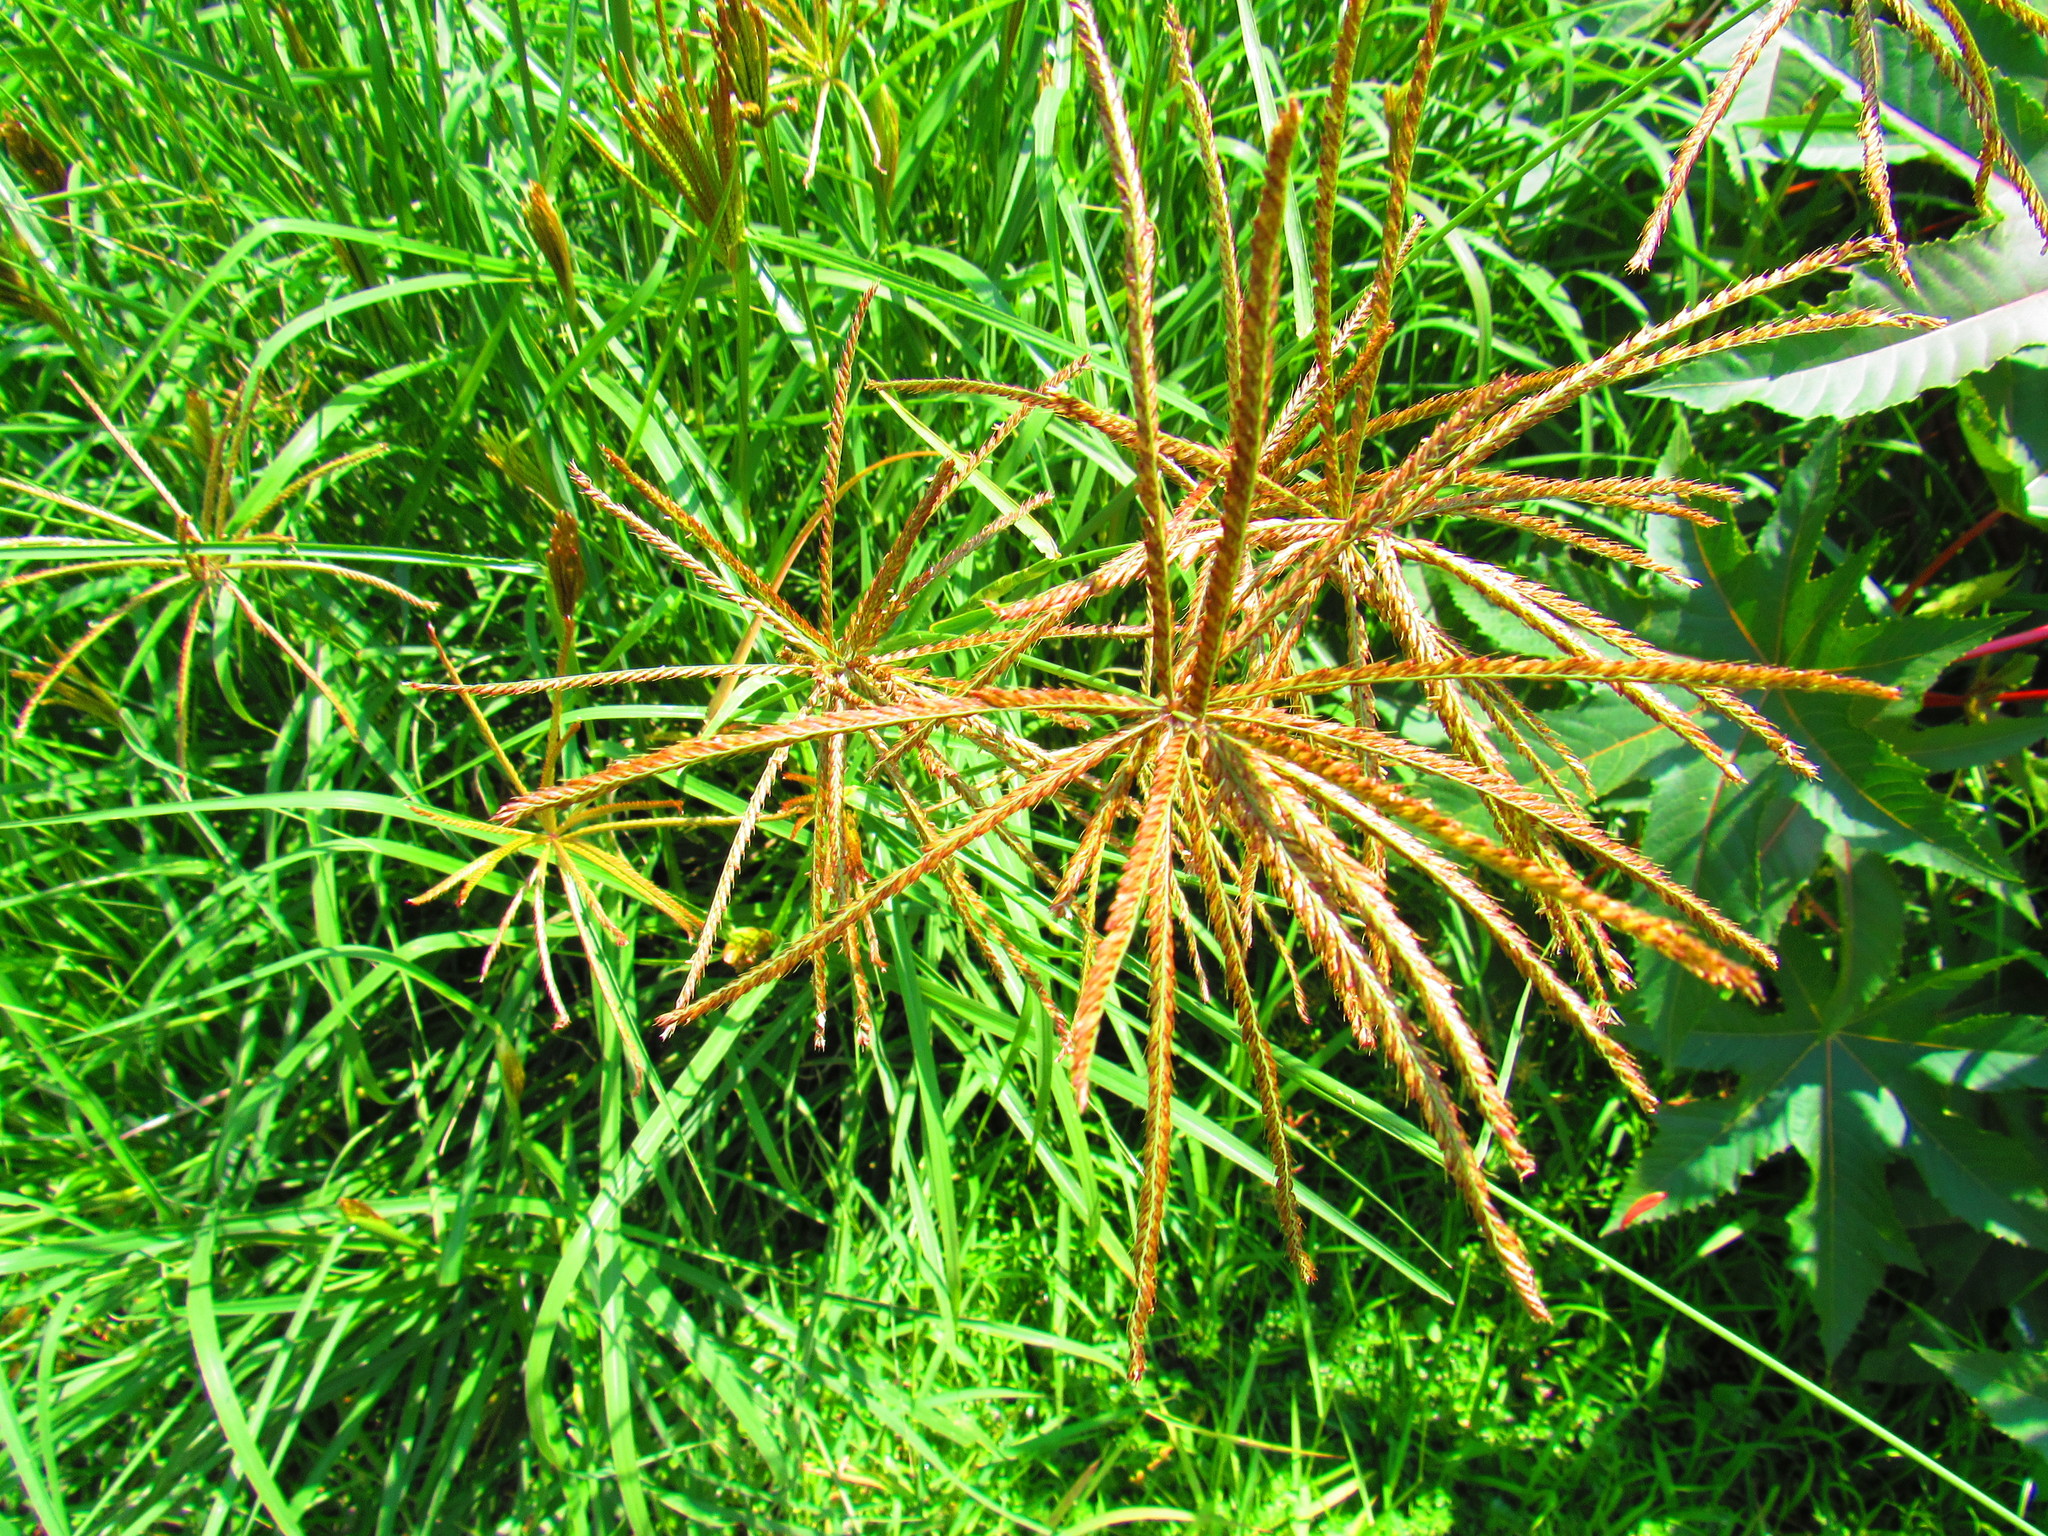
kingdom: Plantae
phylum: Tracheophyta
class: Liliopsida
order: Poales
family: Poaceae
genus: Chloris
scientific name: Chloris gayana
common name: Rhodes grass
